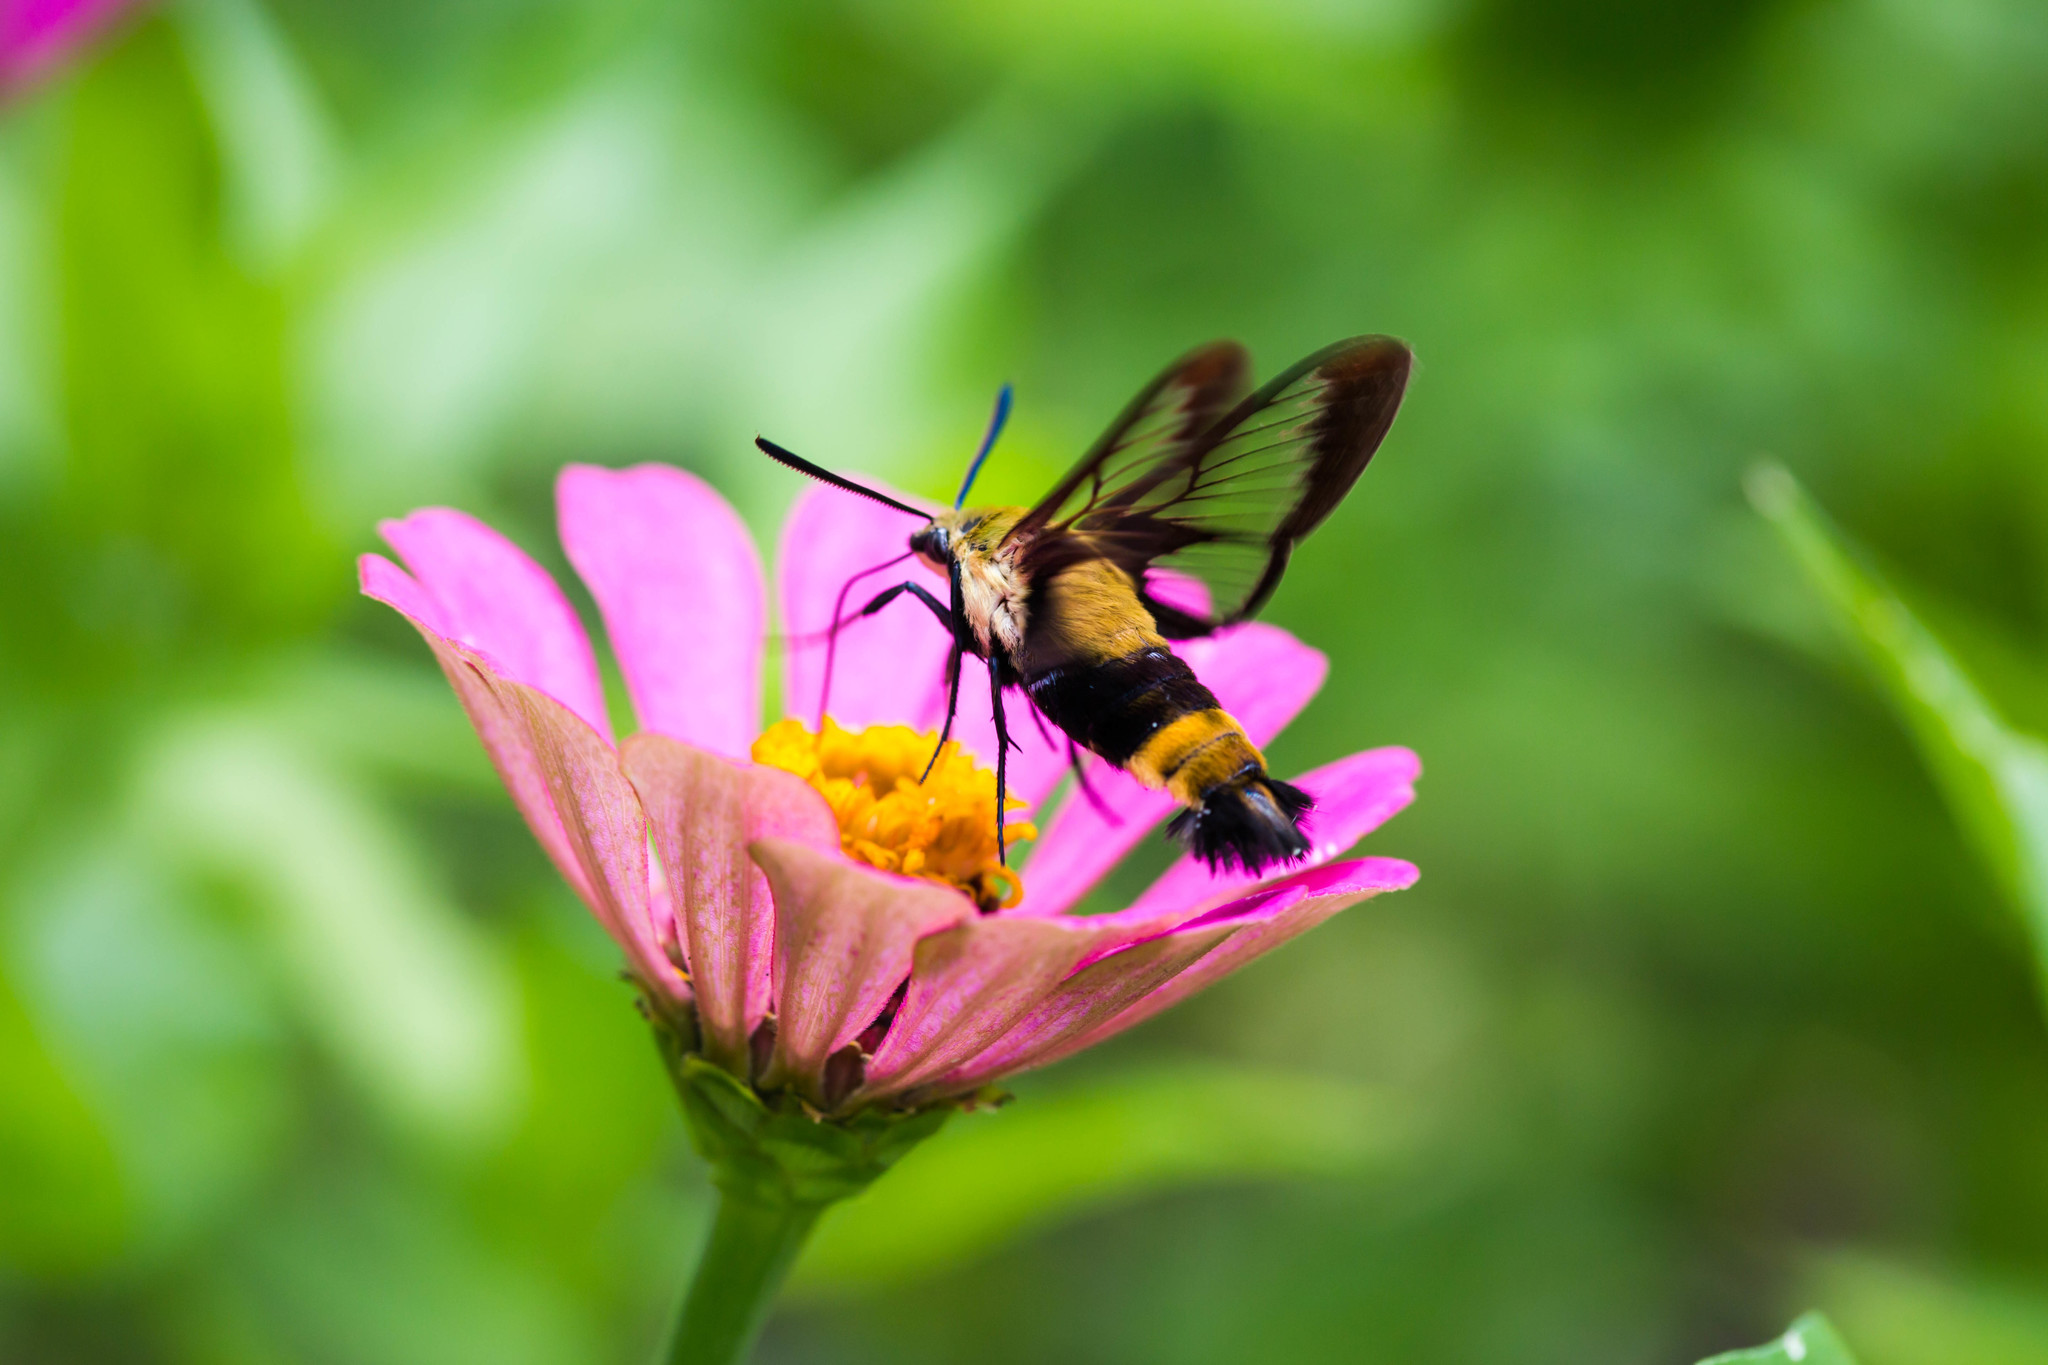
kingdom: Animalia
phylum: Arthropoda
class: Insecta
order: Lepidoptera
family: Sphingidae
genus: Hemaris
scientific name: Hemaris diffinis
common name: Bumblebee moth
